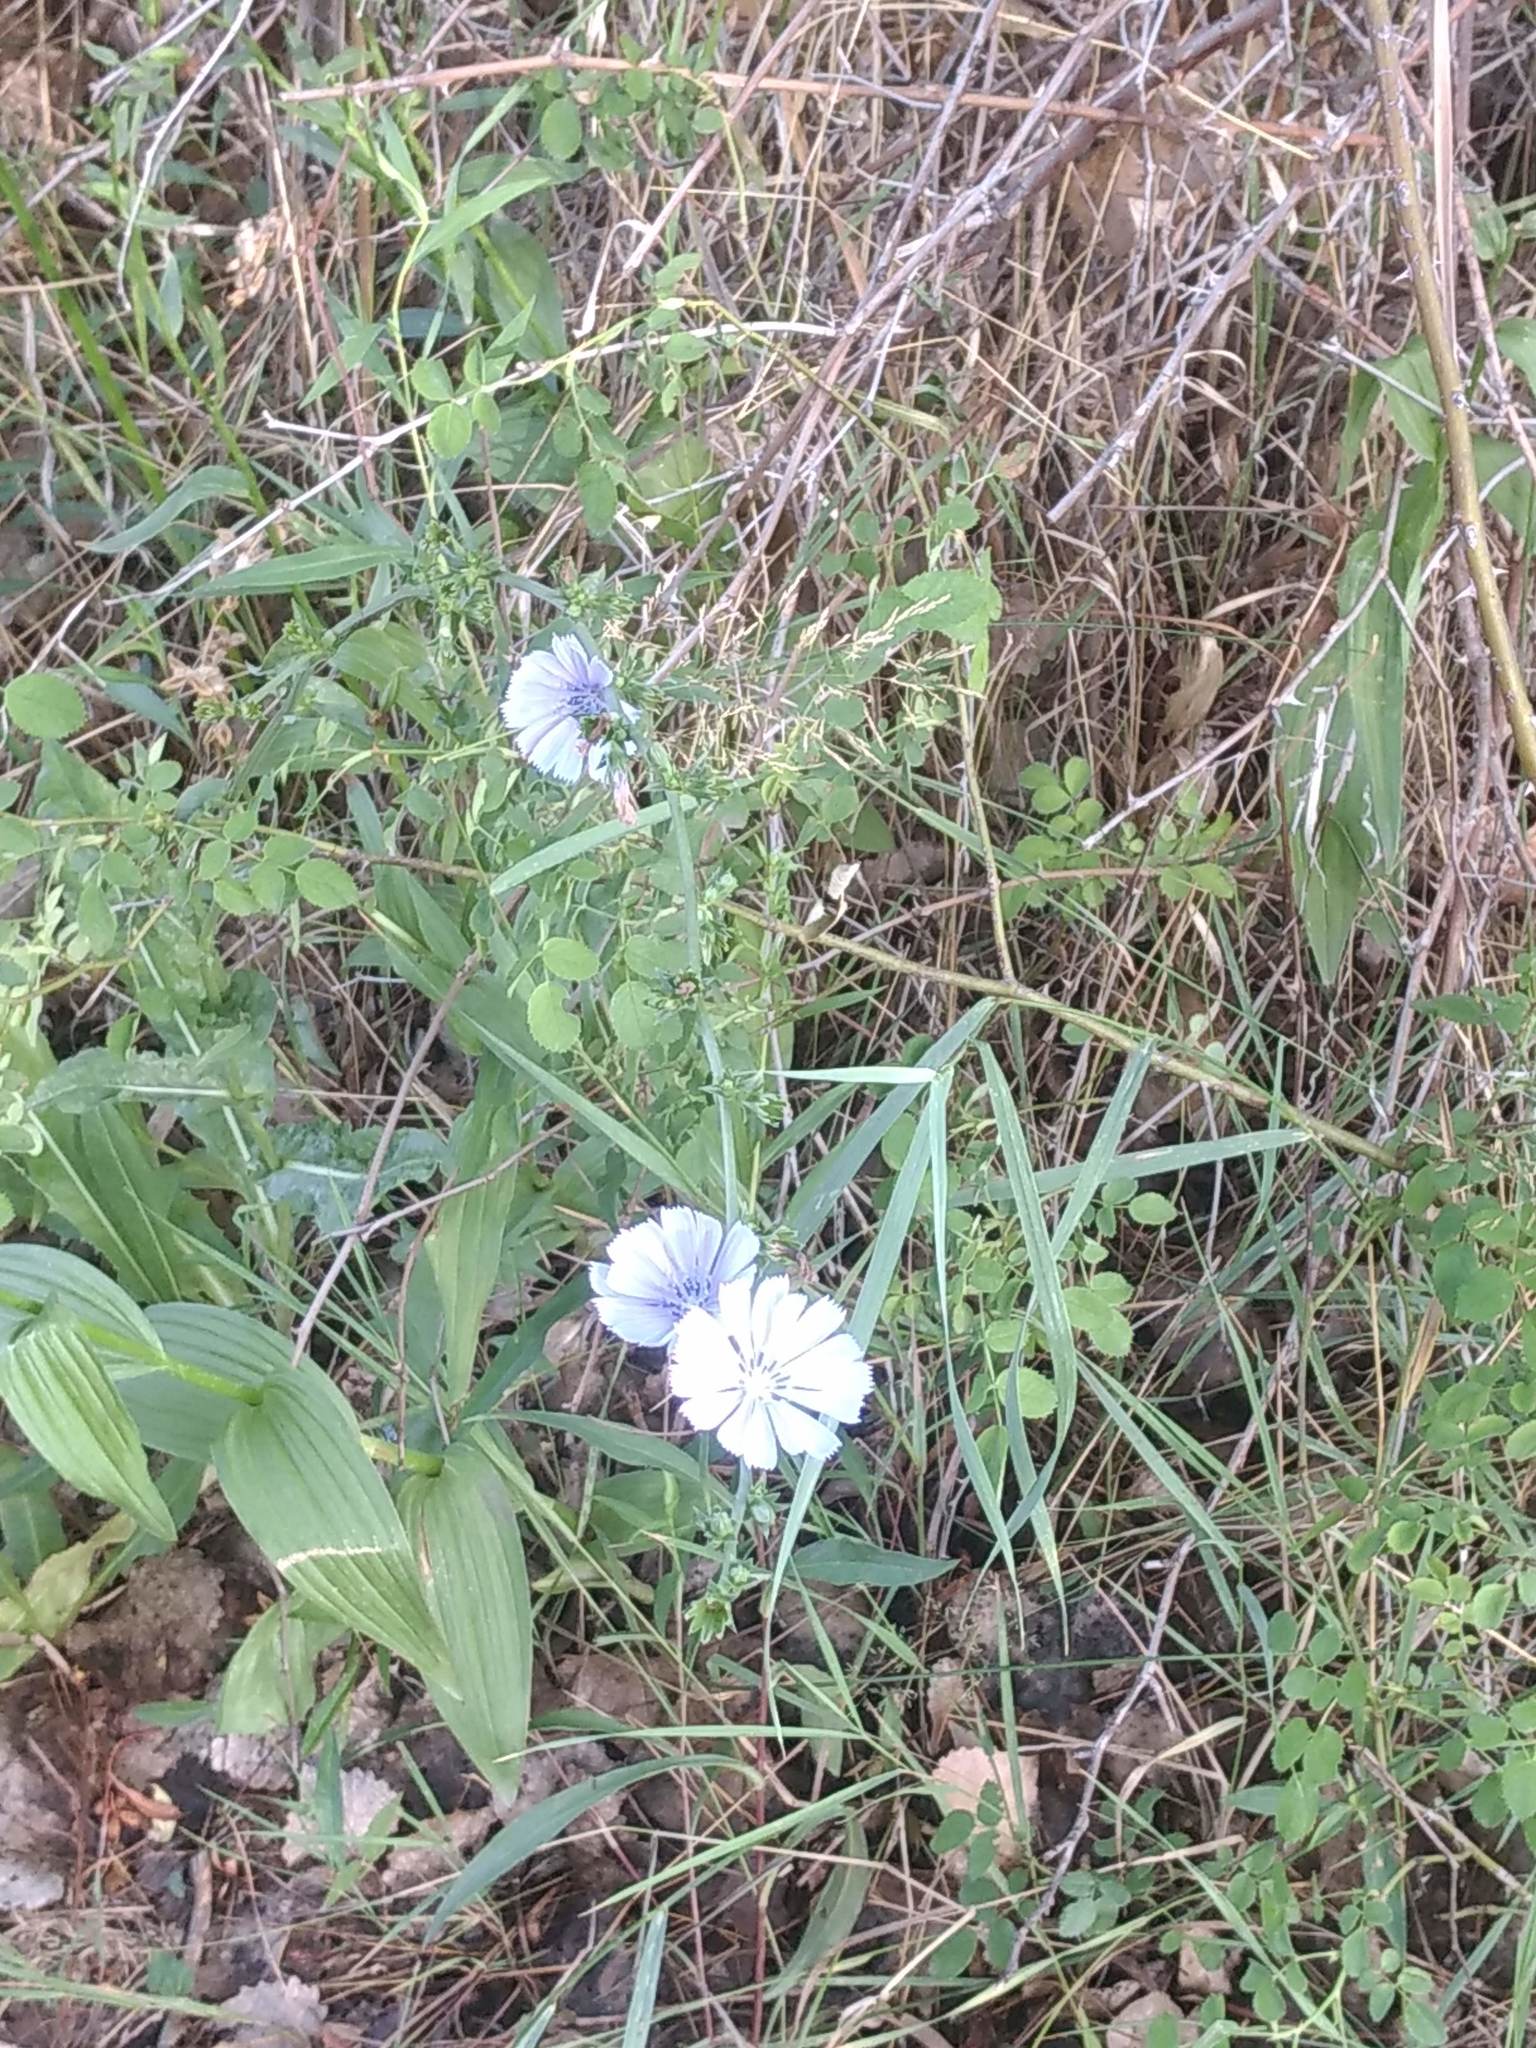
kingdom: Plantae
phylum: Tracheophyta
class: Magnoliopsida
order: Asterales
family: Asteraceae
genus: Cichorium
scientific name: Cichorium intybus
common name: Chicory
